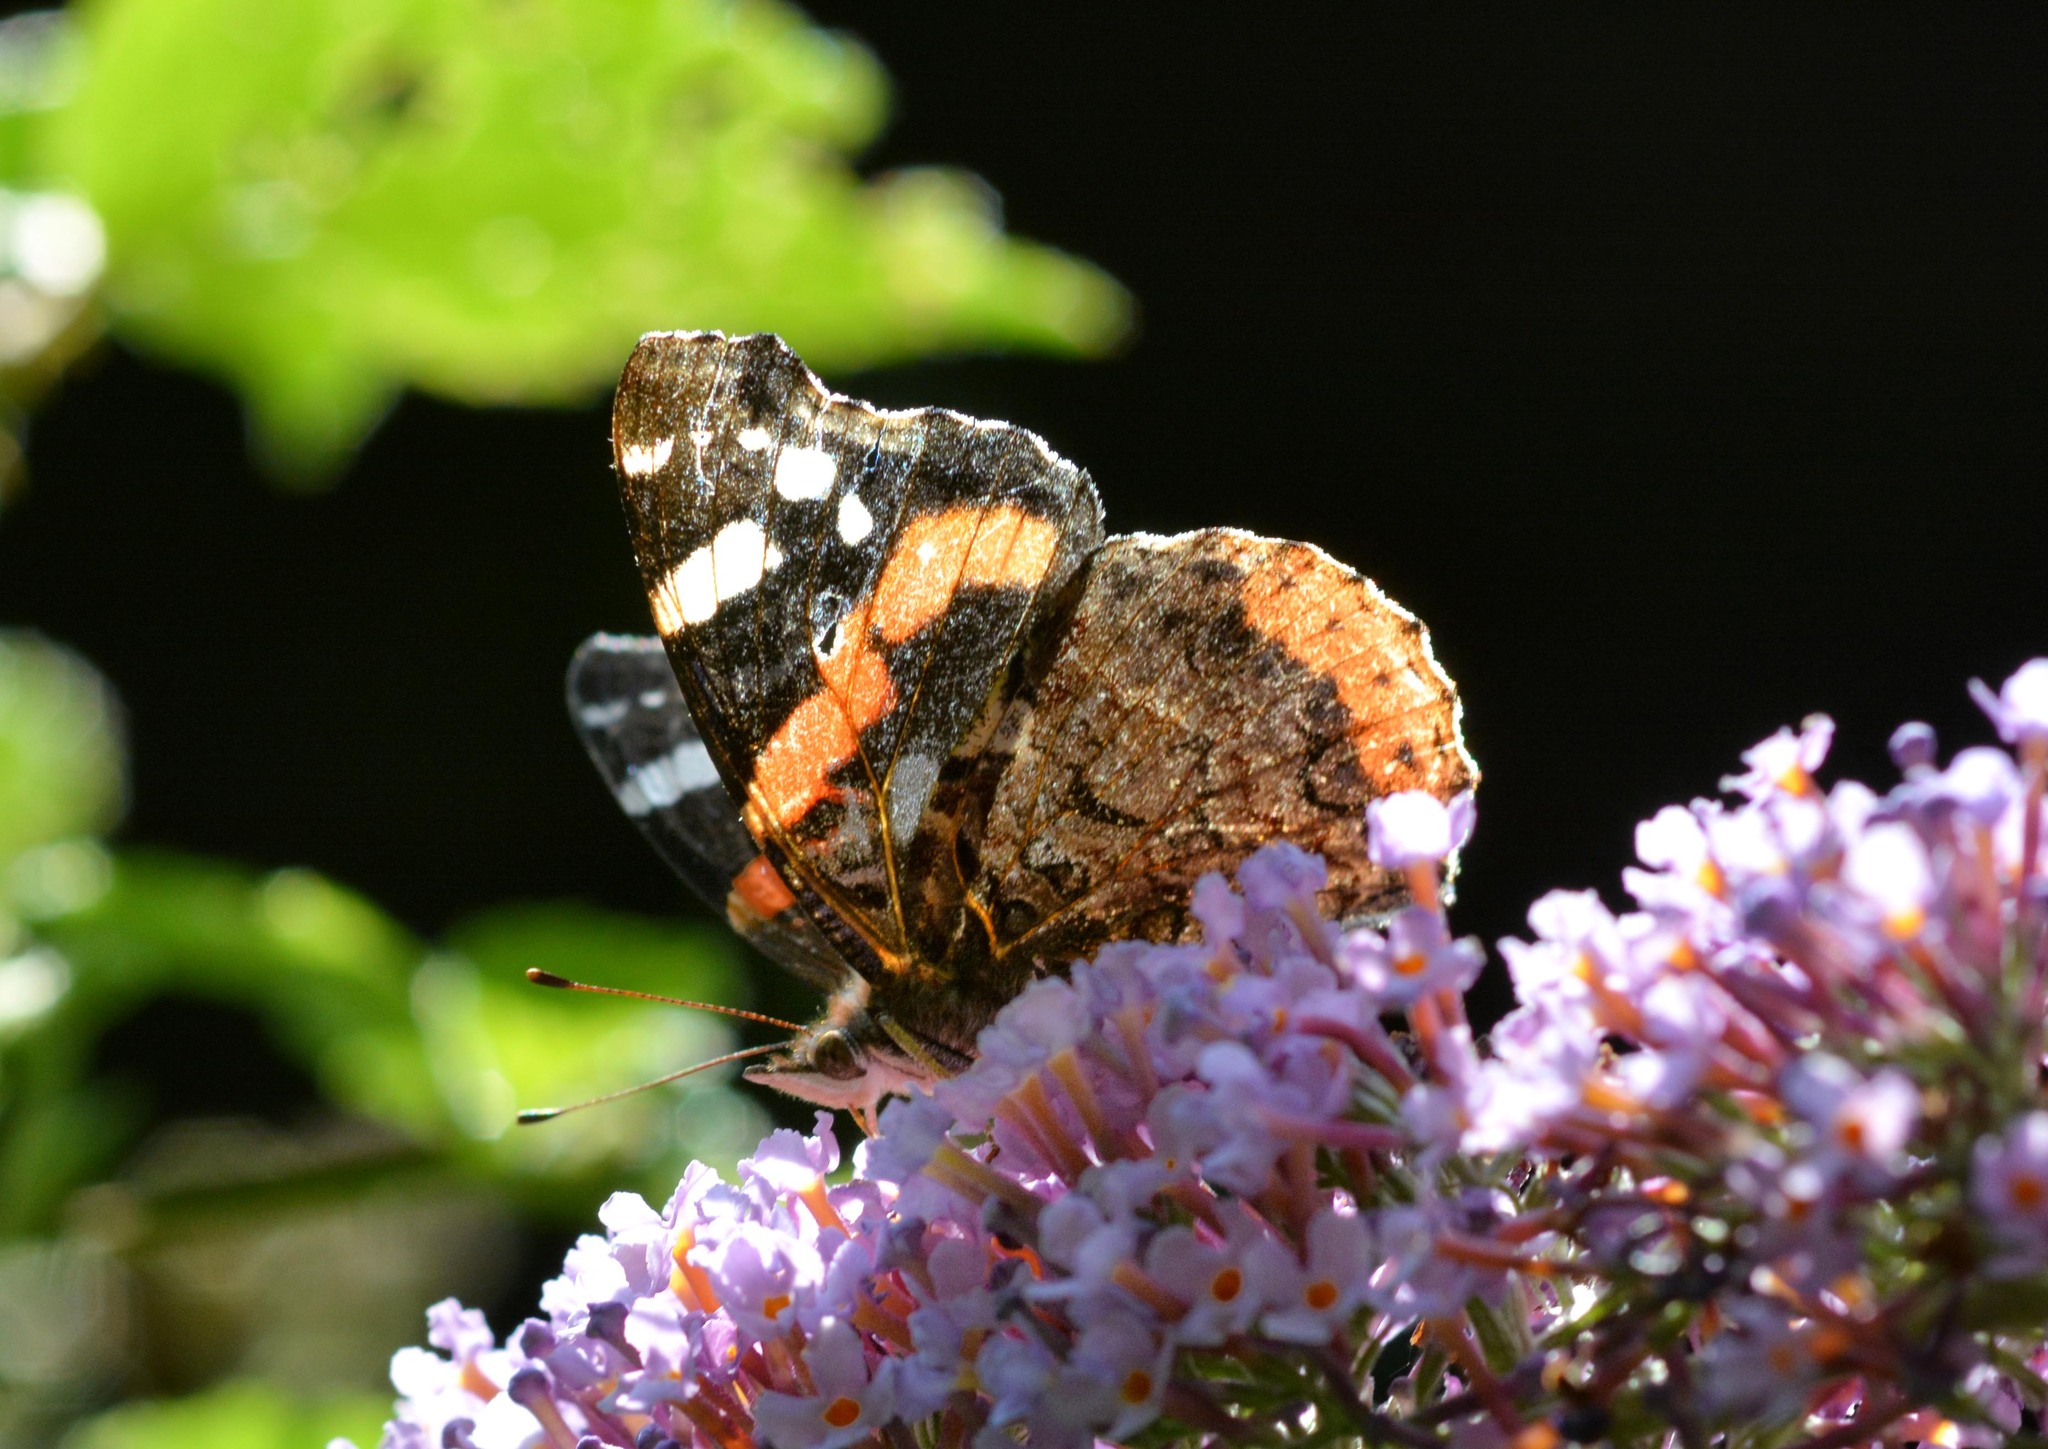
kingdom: Animalia
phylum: Arthropoda
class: Insecta
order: Lepidoptera
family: Nymphalidae
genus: Vanessa
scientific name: Vanessa atalanta
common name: Red admiral
